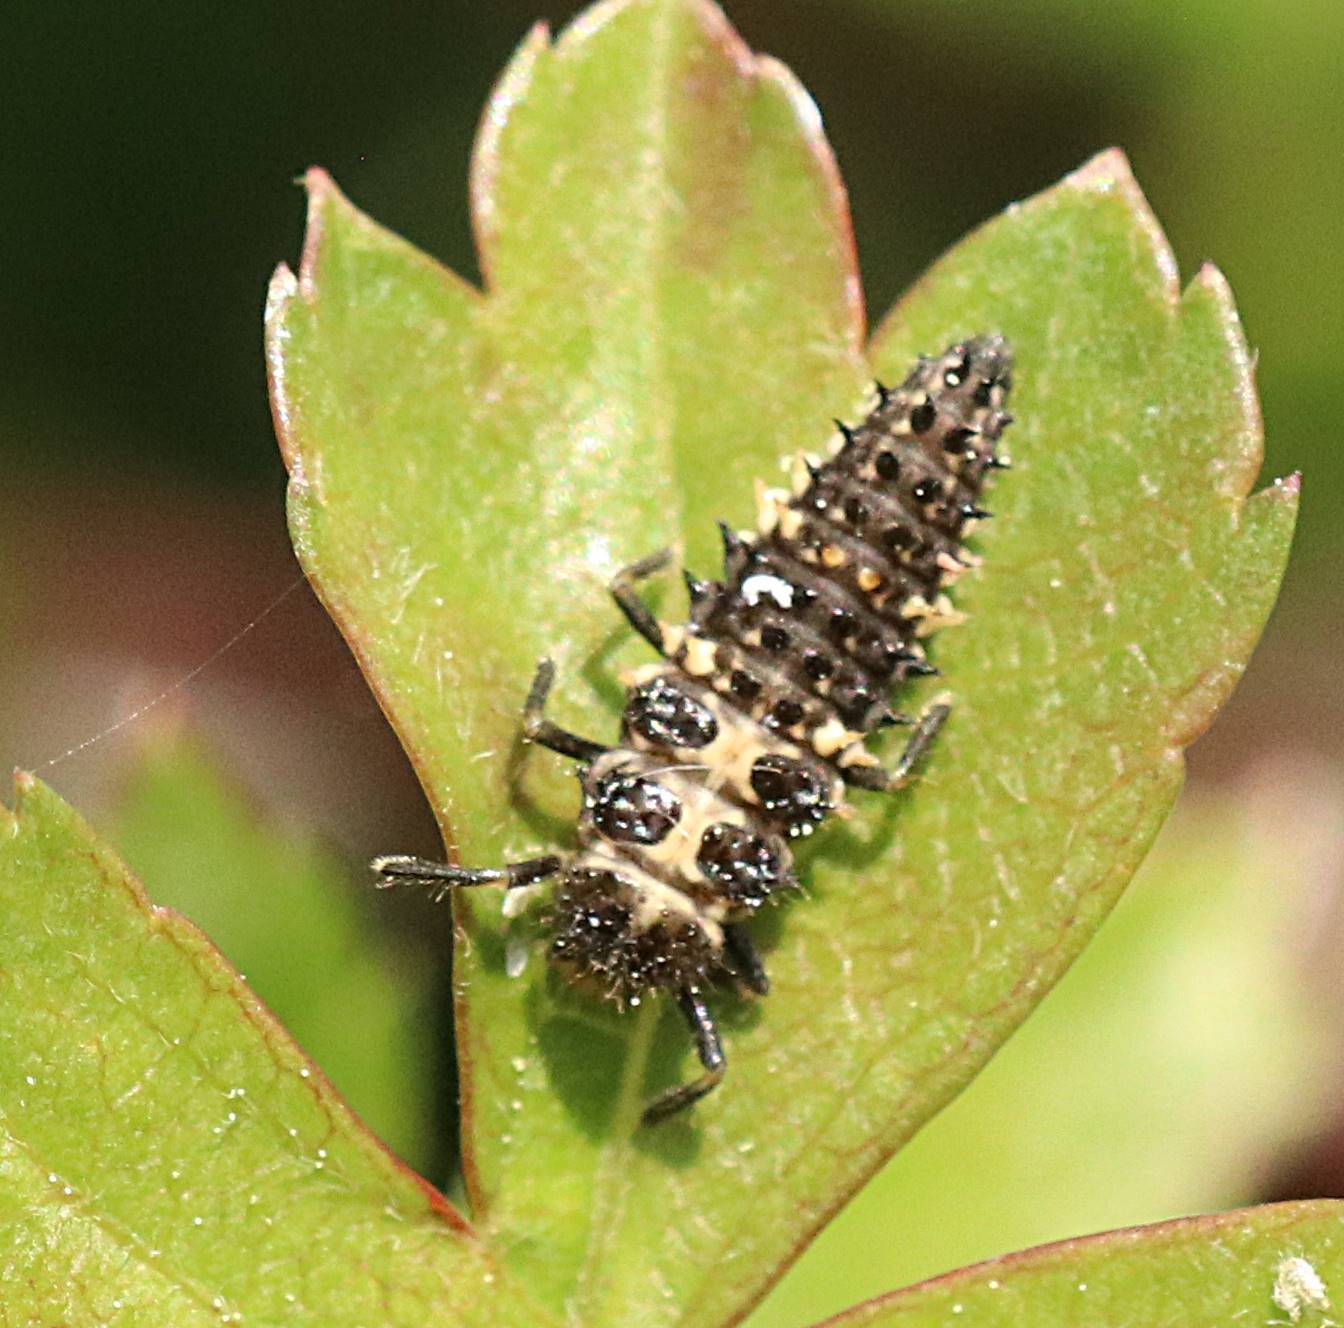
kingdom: Animalia
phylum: Arthropoda
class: Insecta
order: Coleoptera
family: Coccinellidae
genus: Calvia
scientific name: Calvia quatuordecimguttata
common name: Cream-spot ladybird
